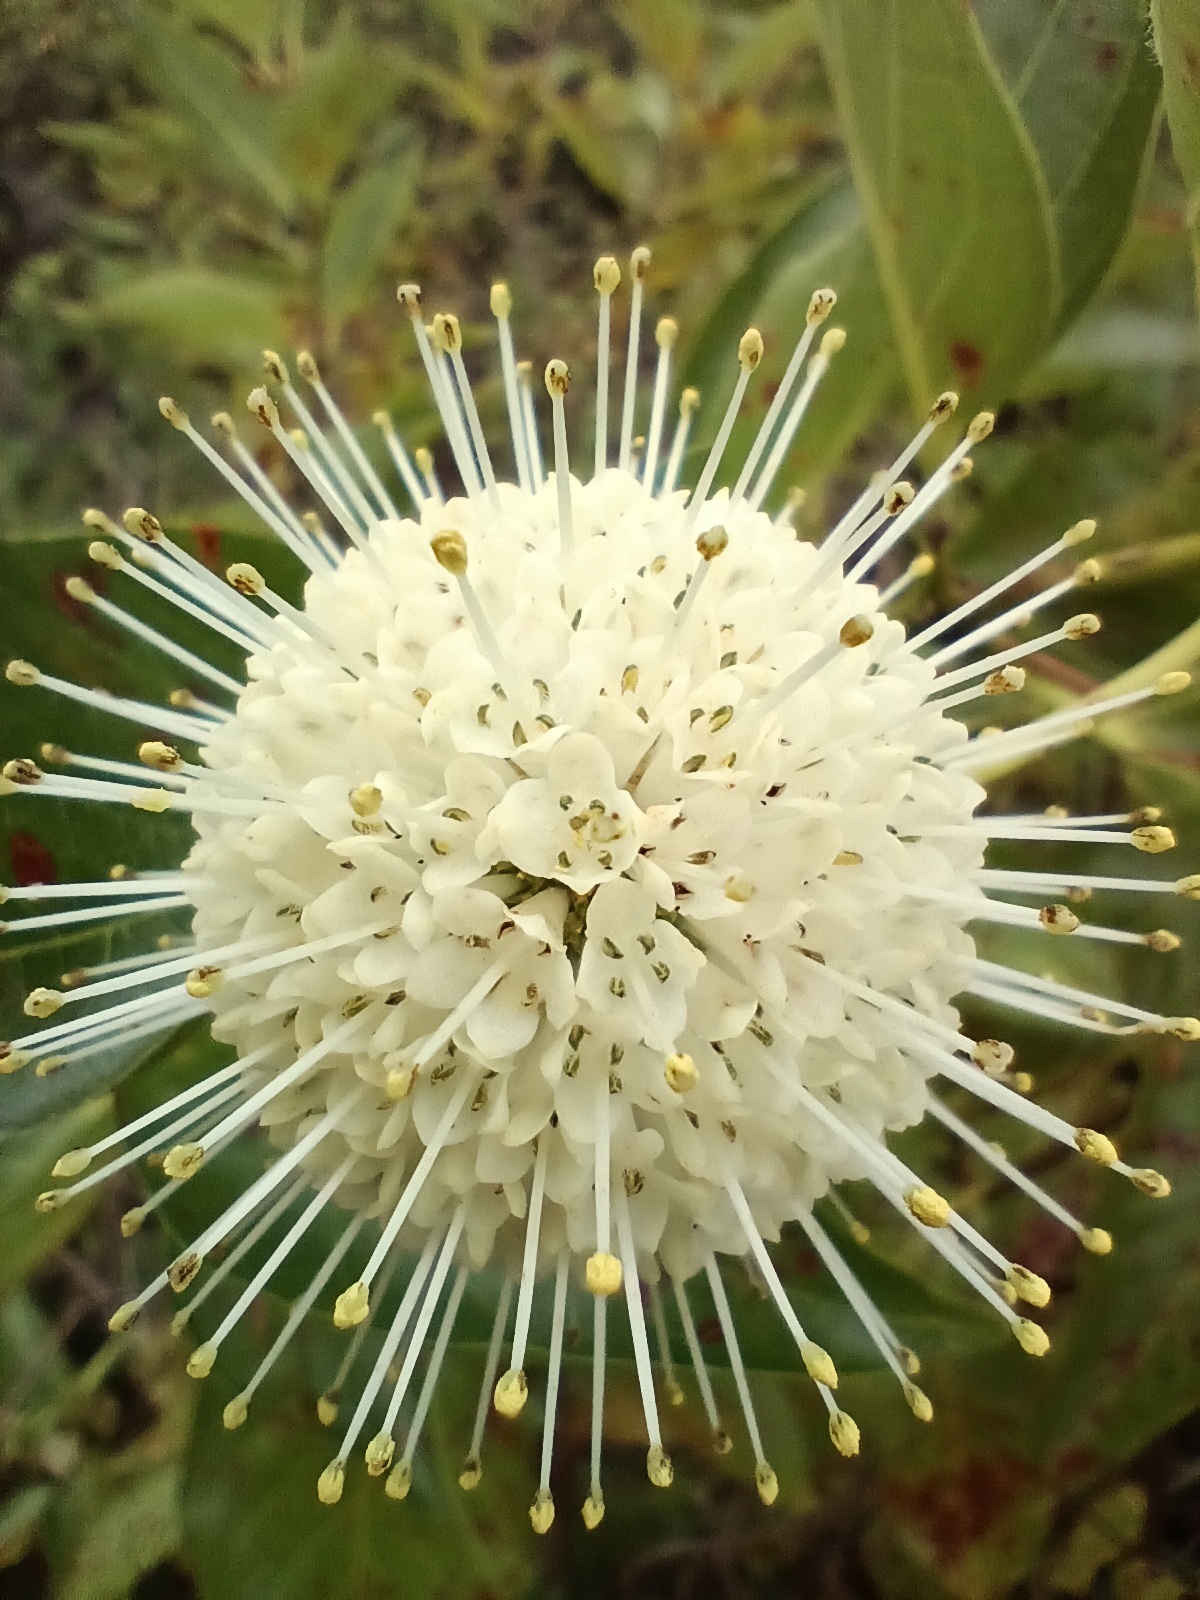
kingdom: Plantae
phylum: Tracheophyta
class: Magnoliopsida
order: Gentianales
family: Rubiaceae
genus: Cephalanthus
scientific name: Cephalanthus occidentalis
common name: Button-willow
